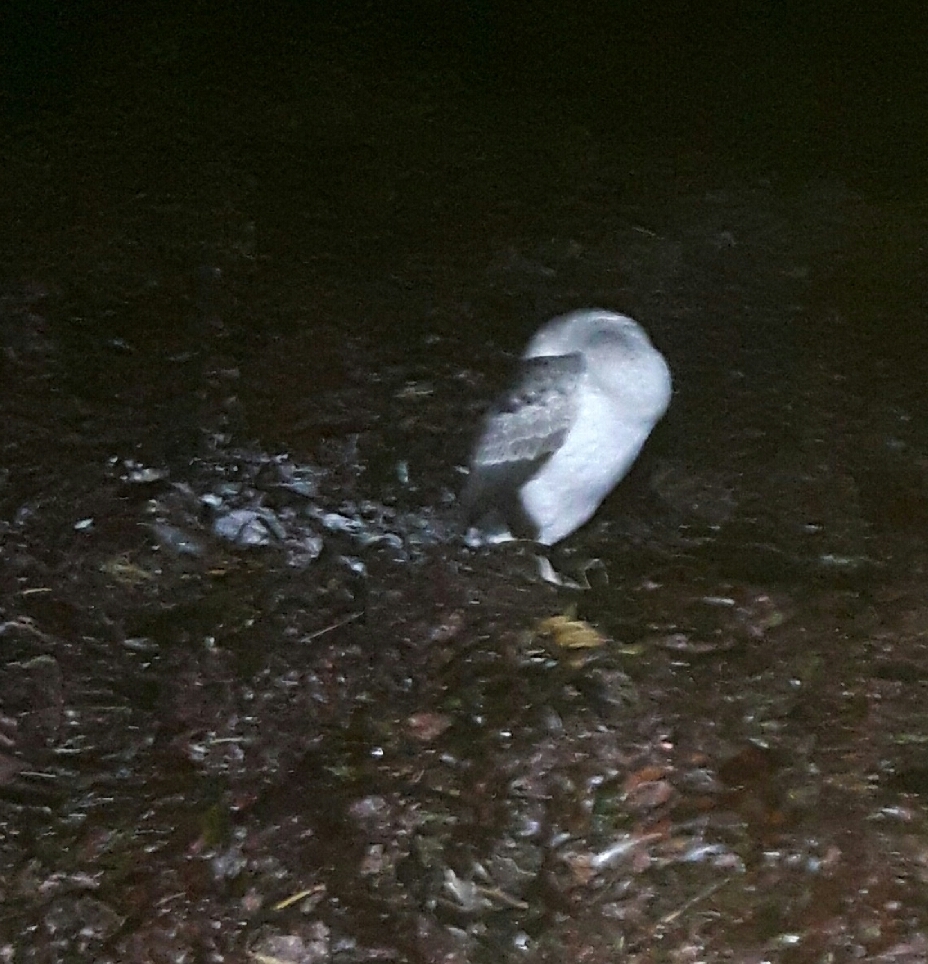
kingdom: Animalia
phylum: Chordata
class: Aves
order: Suliformes
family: Phalacrocoracidae
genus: Phalacrocorax
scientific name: Phalacrocorax punctatus
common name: Spotted shag
